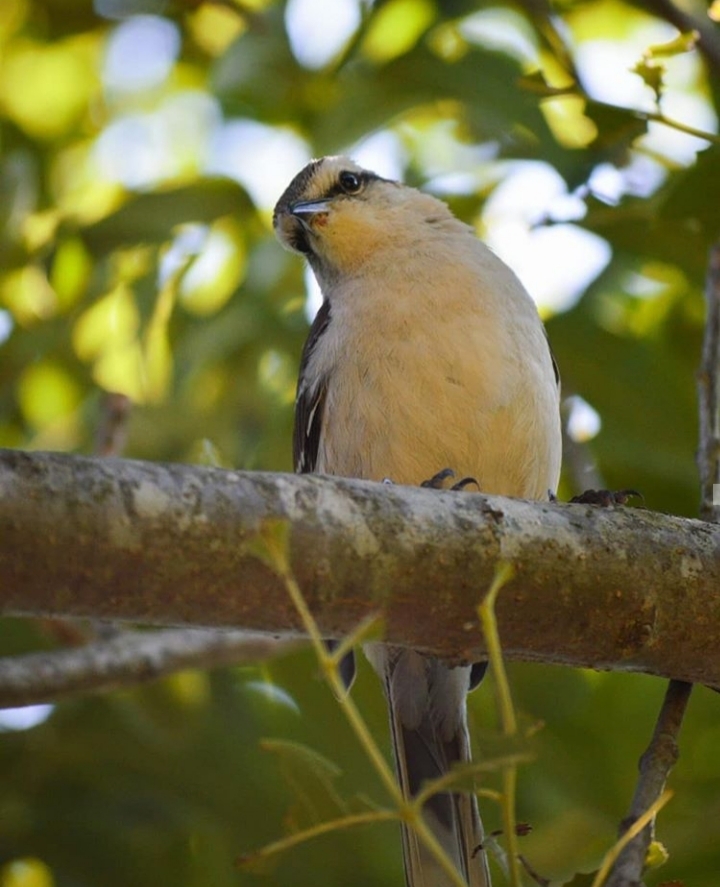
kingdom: Animalia
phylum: Chordata
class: Aves
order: Passeriformes
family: Mimidae
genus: Mimus
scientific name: Mimus saturninus
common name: Chalk-browed mockingbird
